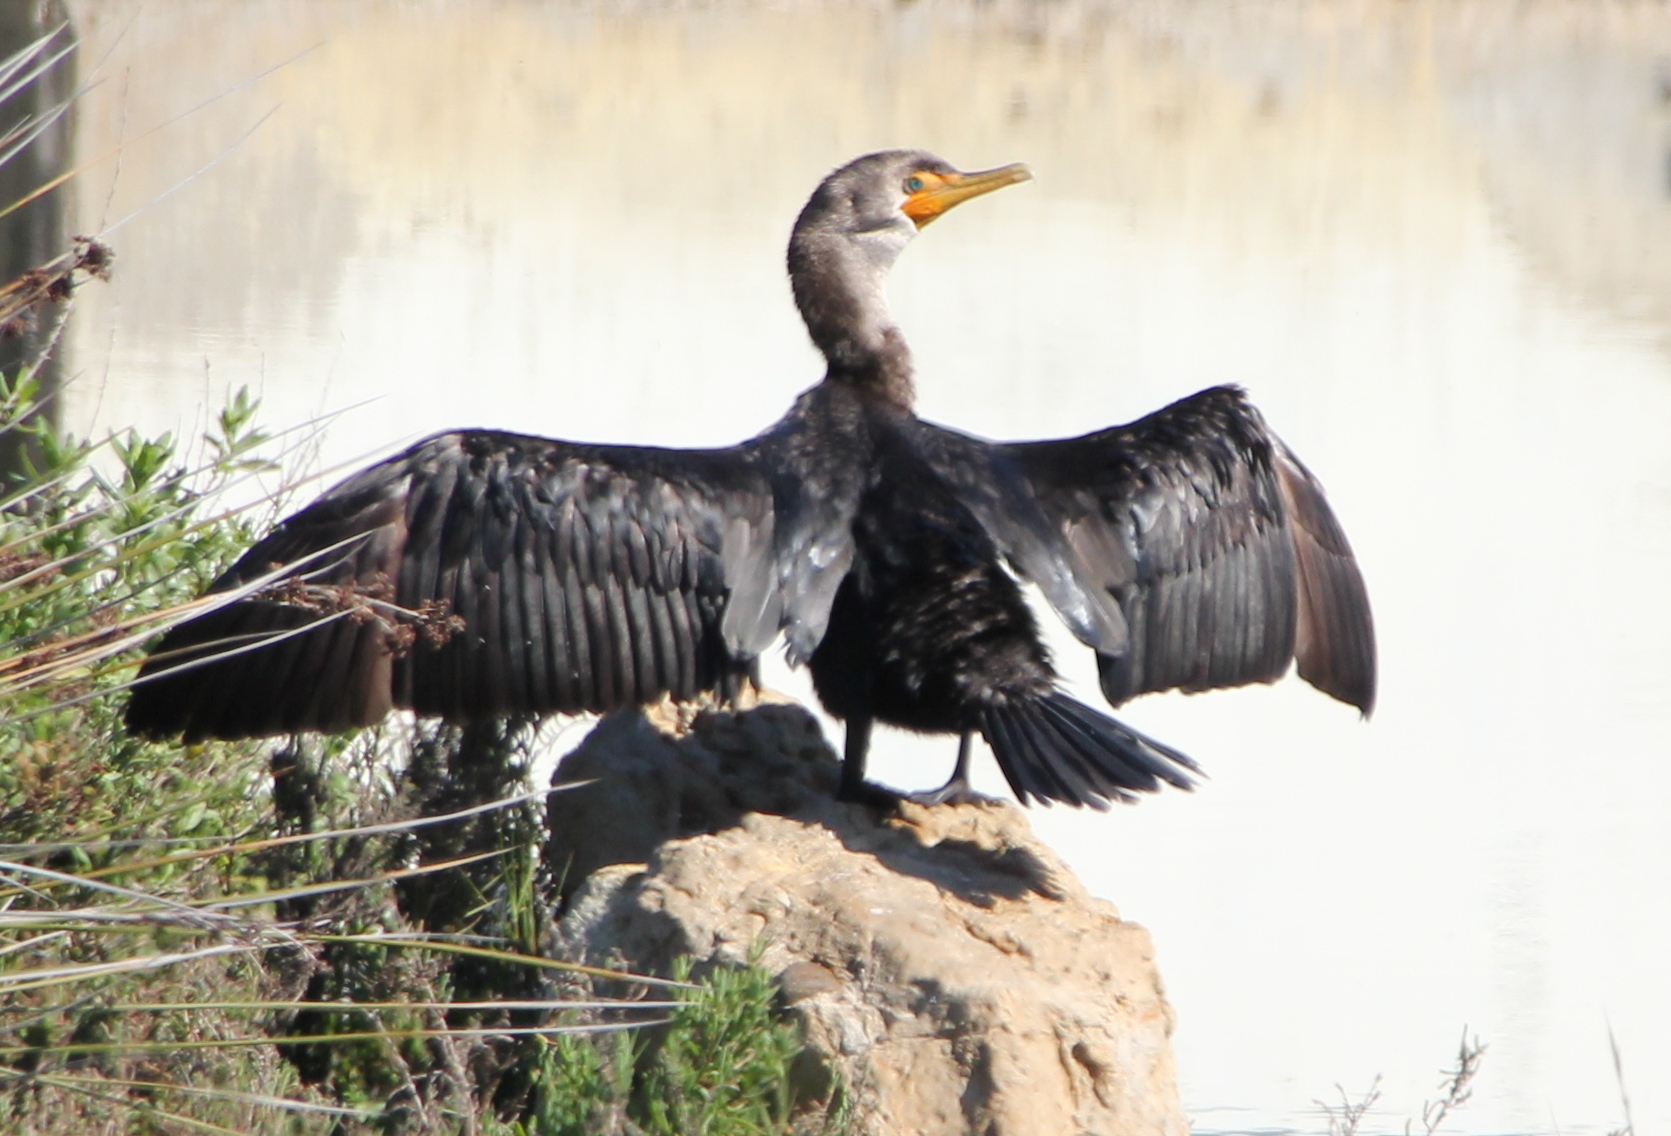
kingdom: Animalia
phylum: Chordata
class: Aves
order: Suliformes
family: Phalacrocoracidae
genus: Phalacrocorax
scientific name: Phalacrocorax auritus
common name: Double-crested cormorant
